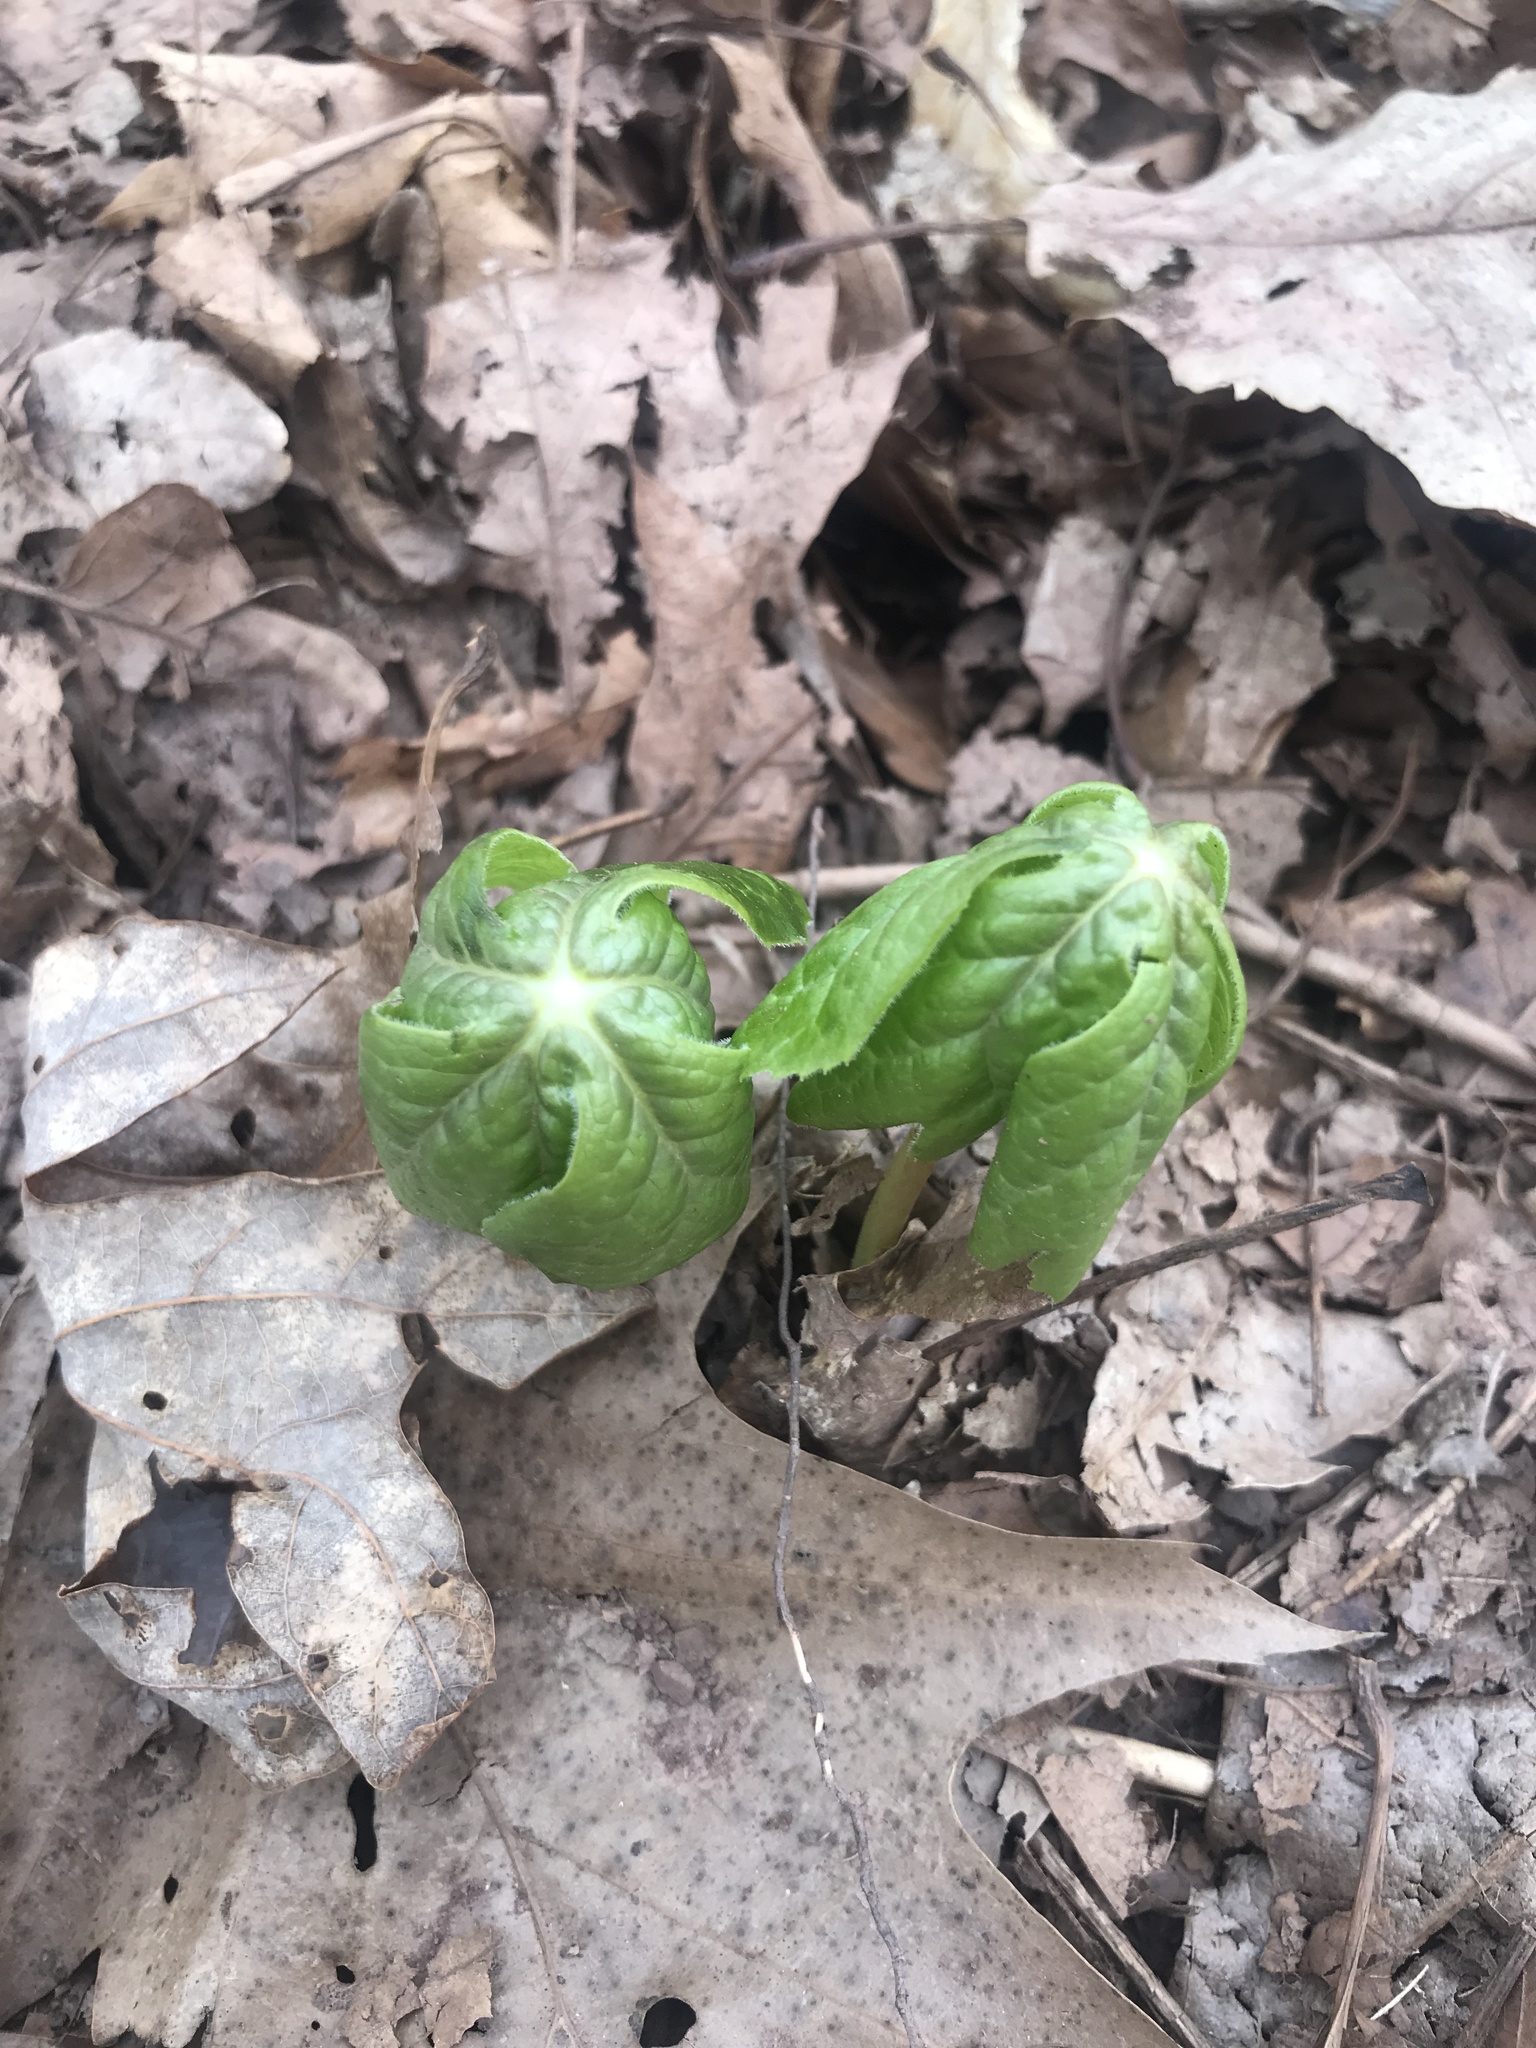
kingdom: Plantae
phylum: Tracheophyta
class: Magnoliopsida
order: Ranunculales
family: Berberidaceae
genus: Podophyllum
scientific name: Podophyllum peltatum
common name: Wild mandrake
